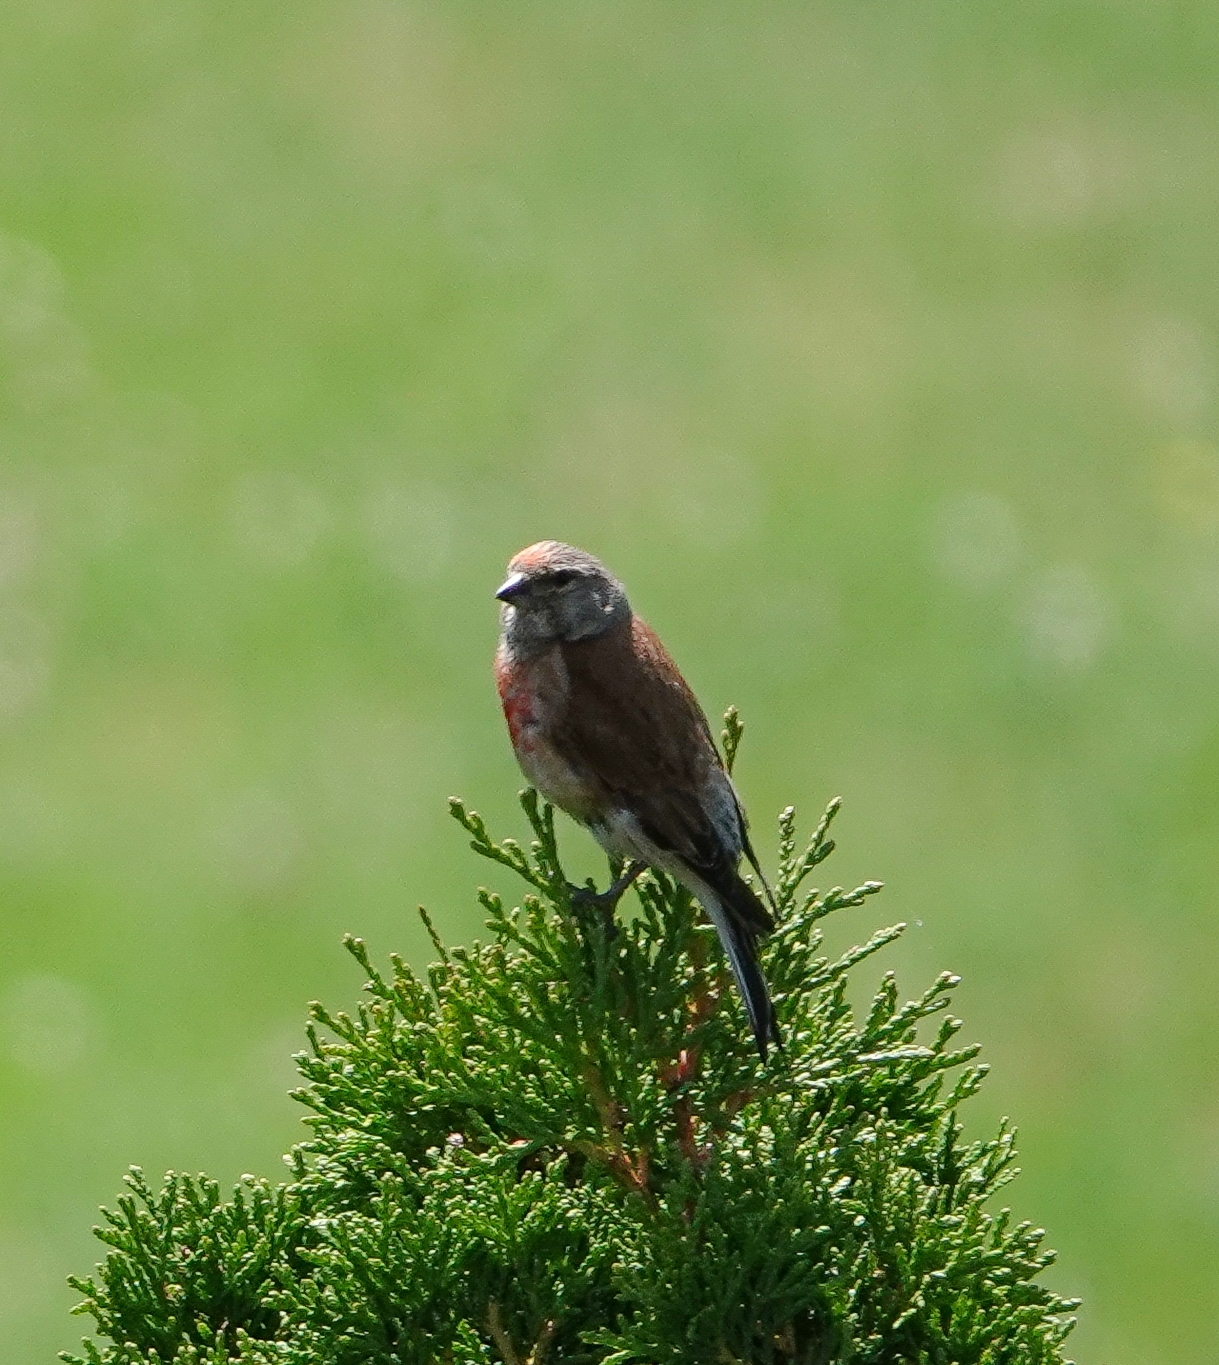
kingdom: Animalia
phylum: Chordata
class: Aves
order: Passeriformes
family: Fringillidae
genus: Linaria
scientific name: Linaria cannabina
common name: Common linnet
